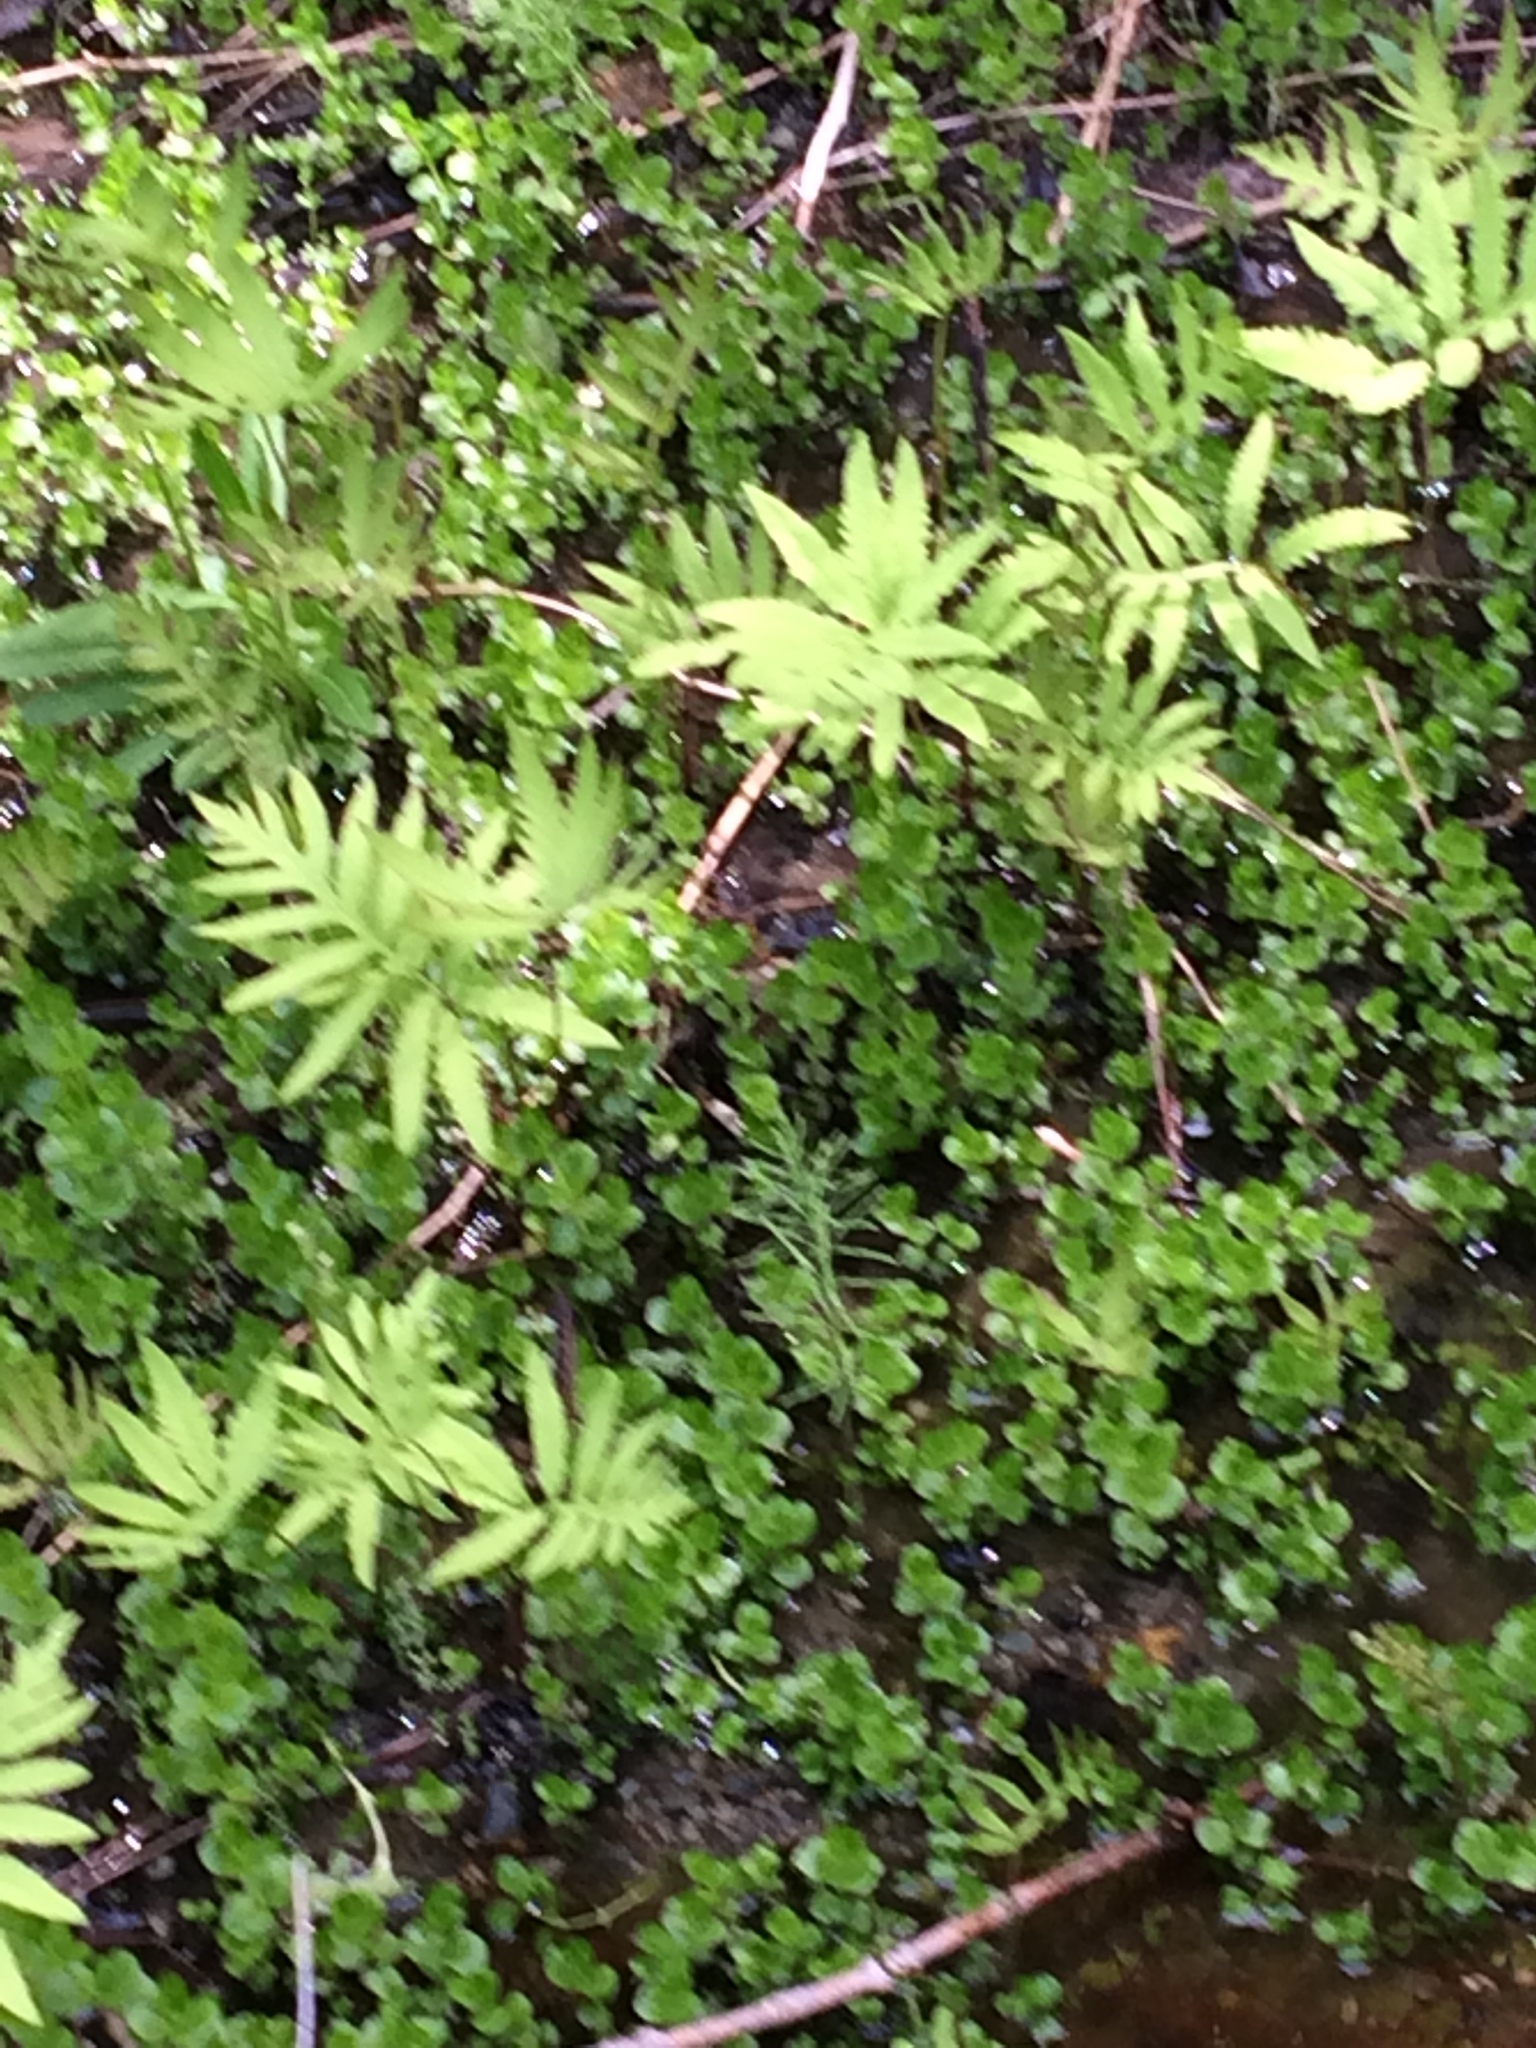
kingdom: Plantae
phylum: Tracheophyta
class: Magnoliopsida
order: Ericales
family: Primulaceae
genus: Lysimachia
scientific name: Lysimachia nummularia
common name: Moneywort
